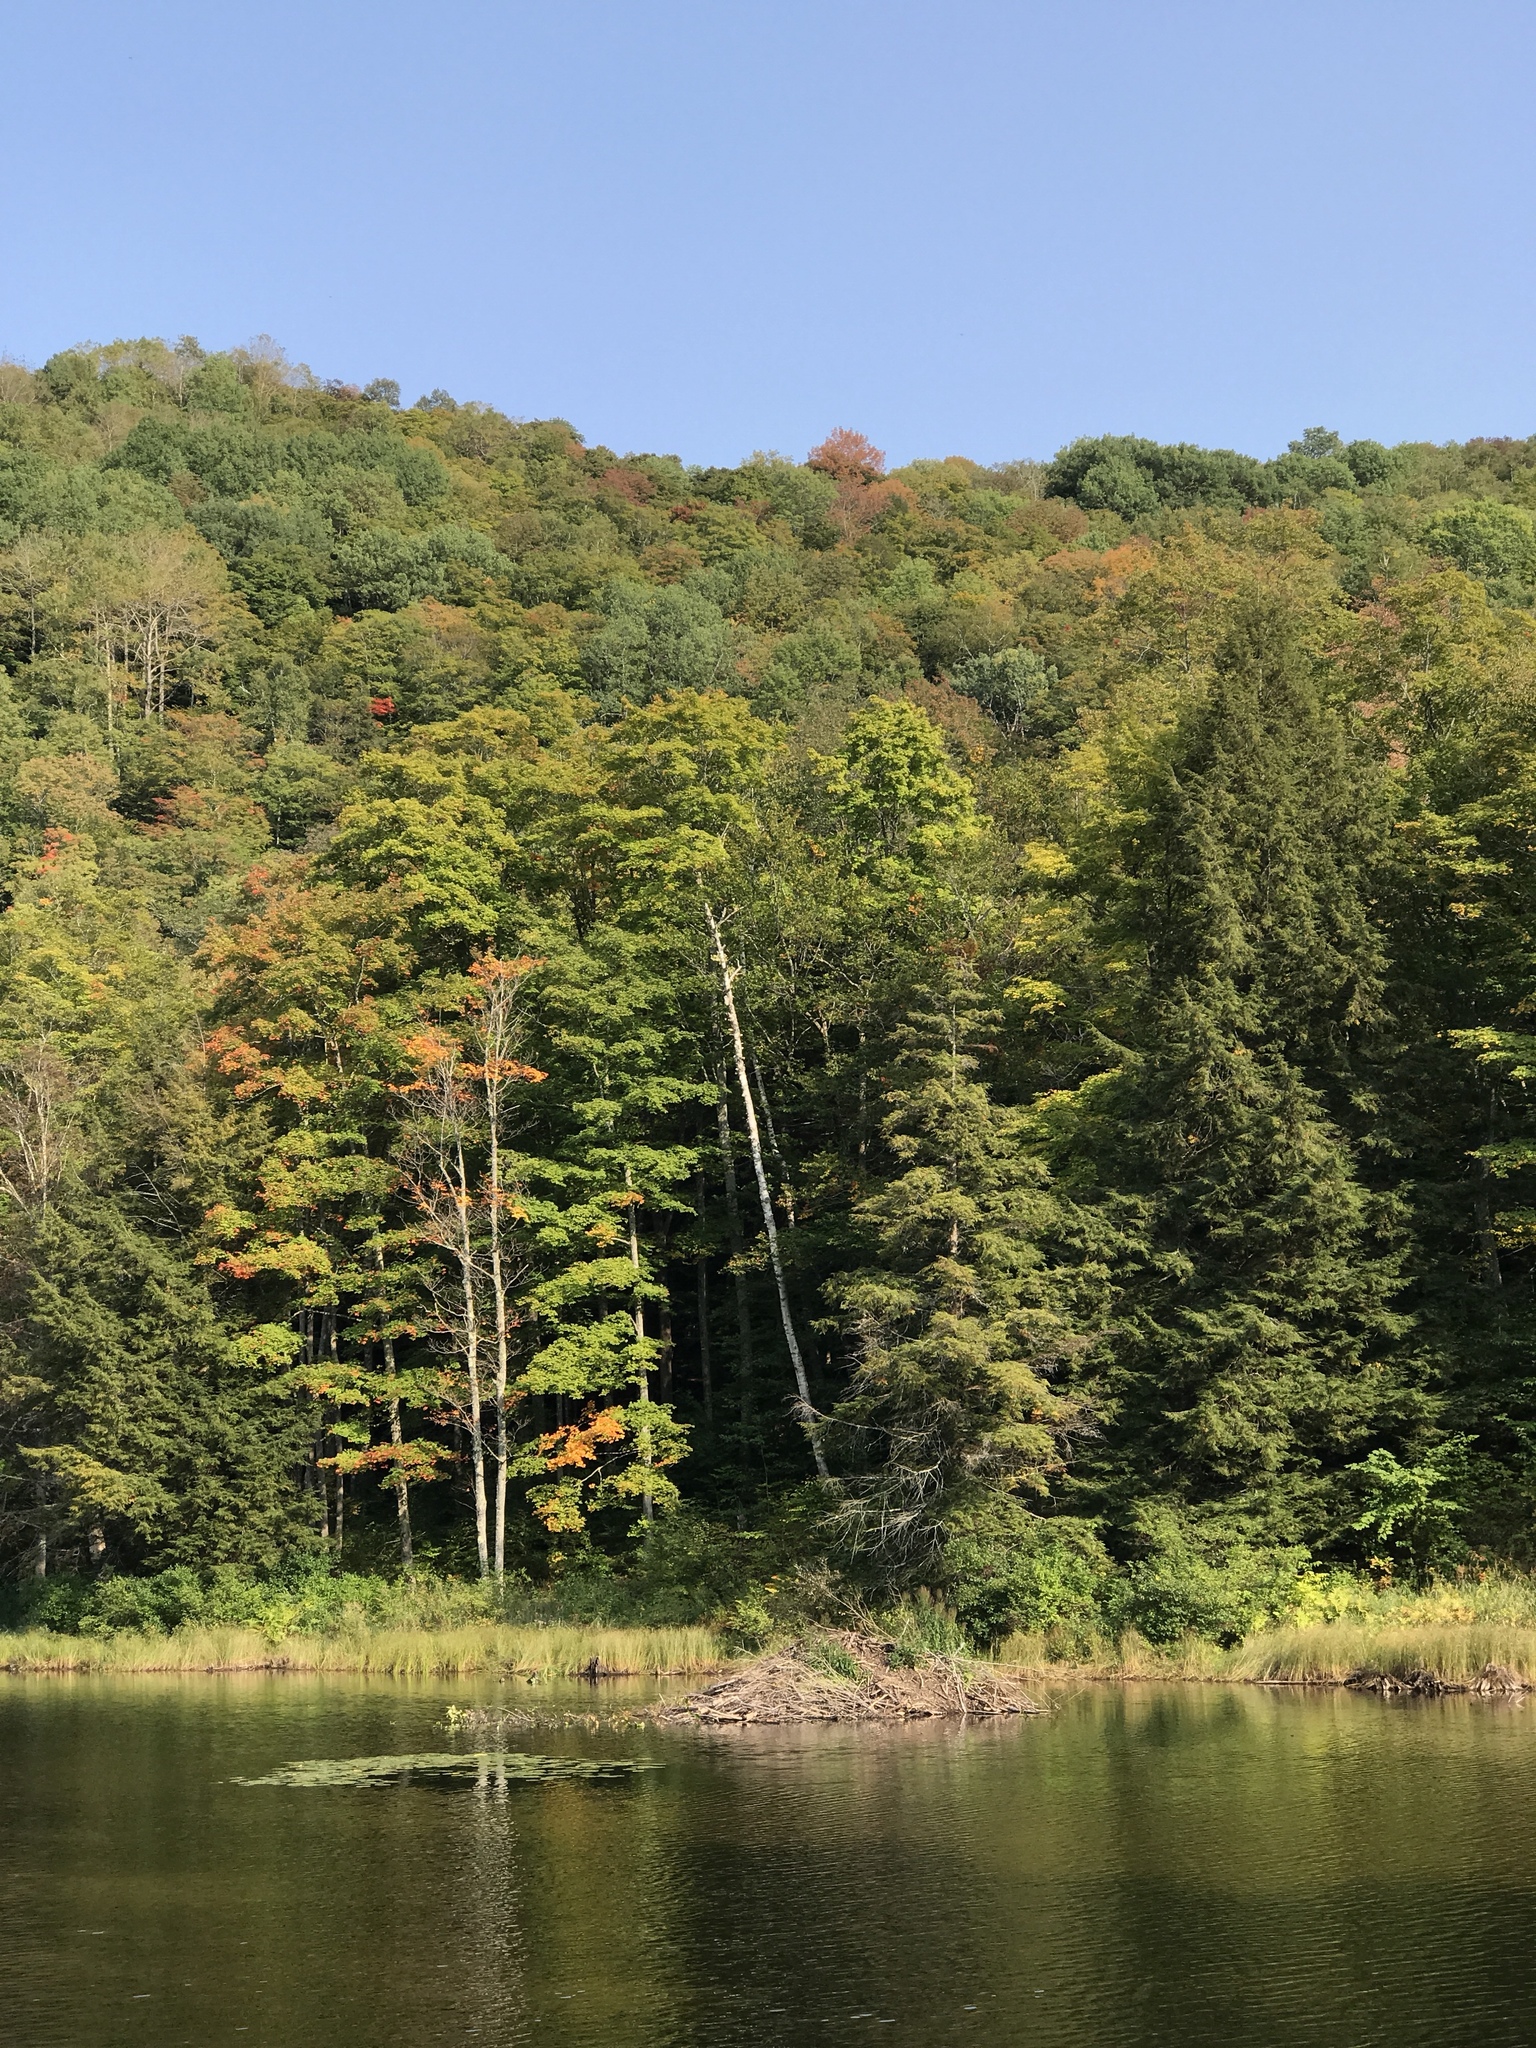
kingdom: Animalia
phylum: Chordata
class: Mammalia
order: Rodentia
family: Castoridae
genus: Castor
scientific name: Castor canadensis
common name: American beaver
